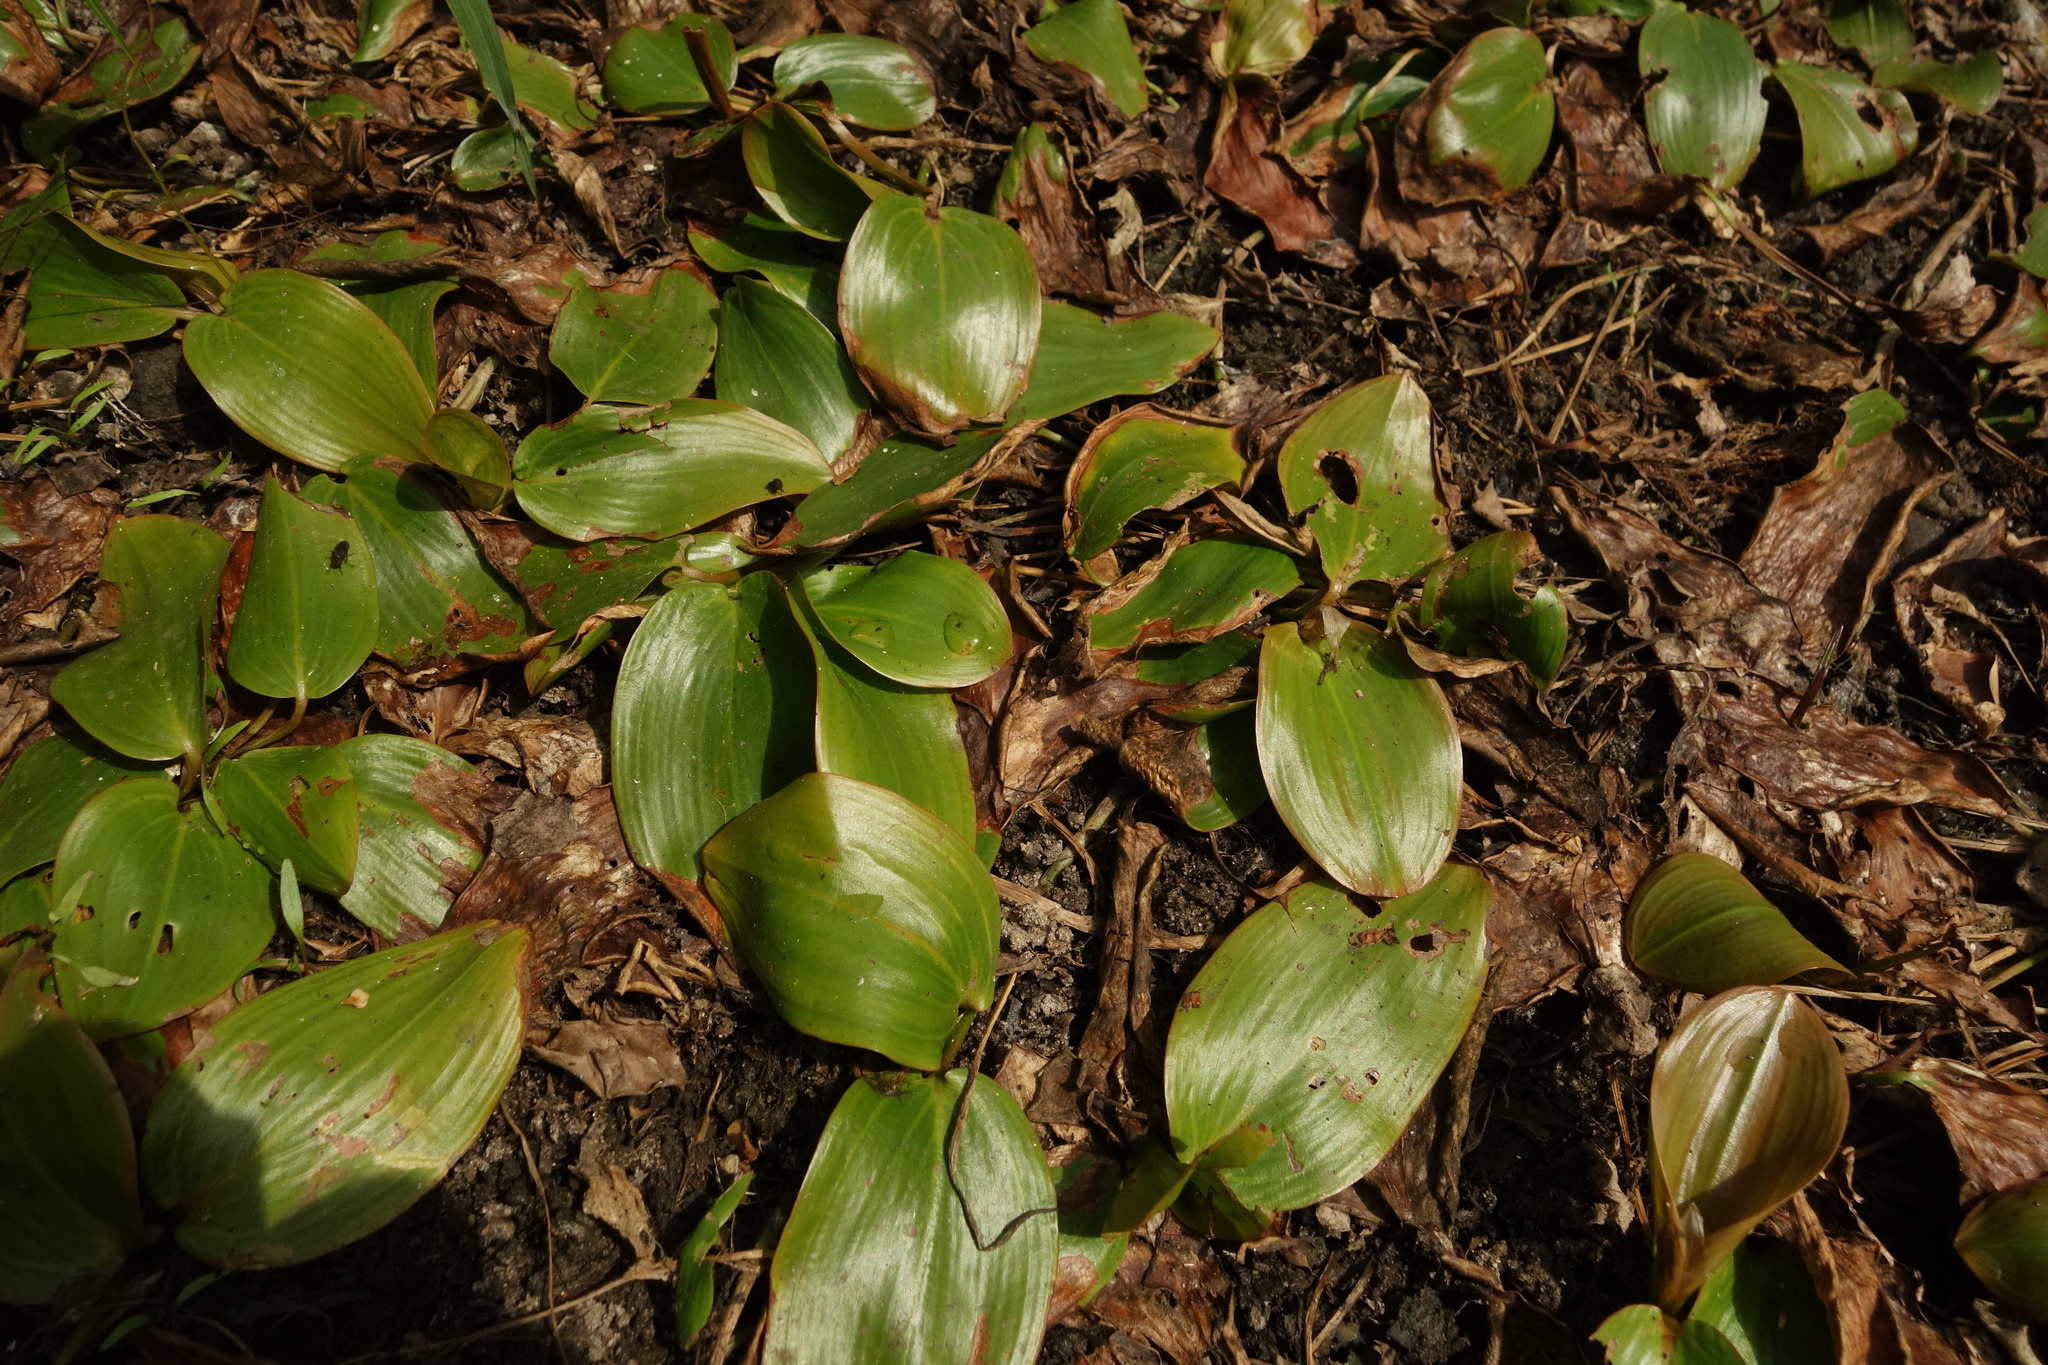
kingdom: Plantae
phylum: Tracheophyta
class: Liliopsida
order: Alismatales
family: Potamogetonaceae
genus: Potamogeton
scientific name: Potamogeton natans
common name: Broad-leaved pondweed
